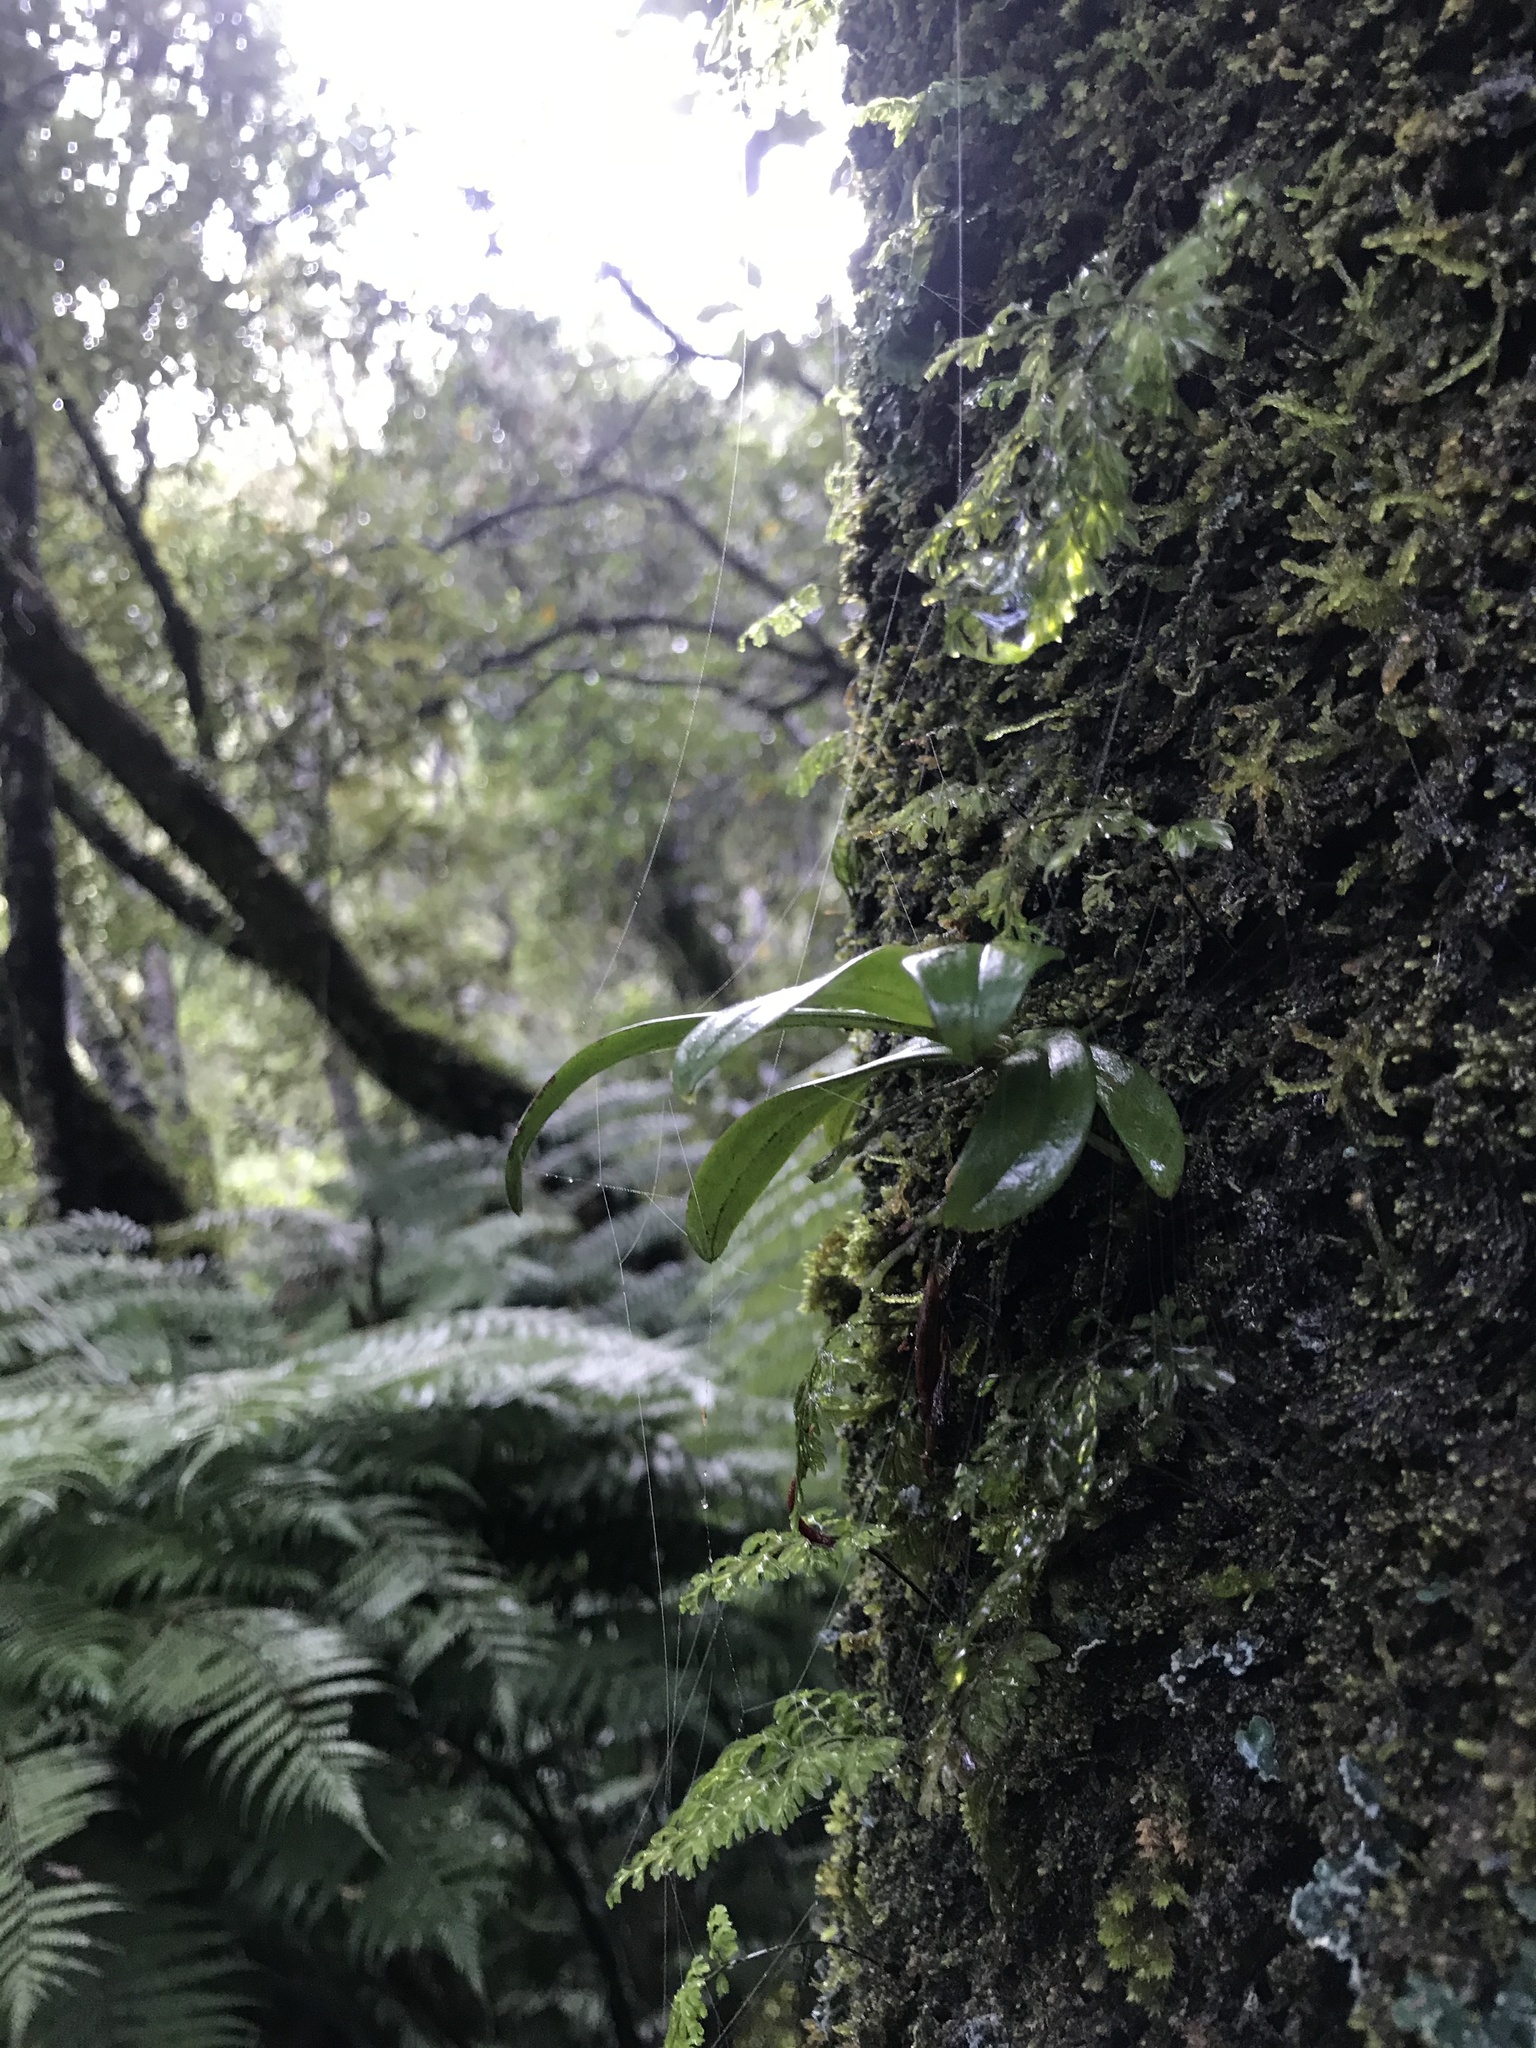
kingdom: Plantae
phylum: Tracheophyta
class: Liliopsida
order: Asparagales
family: Orchidaceae
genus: Drymoanthus
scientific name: Drymoanthus adversus
